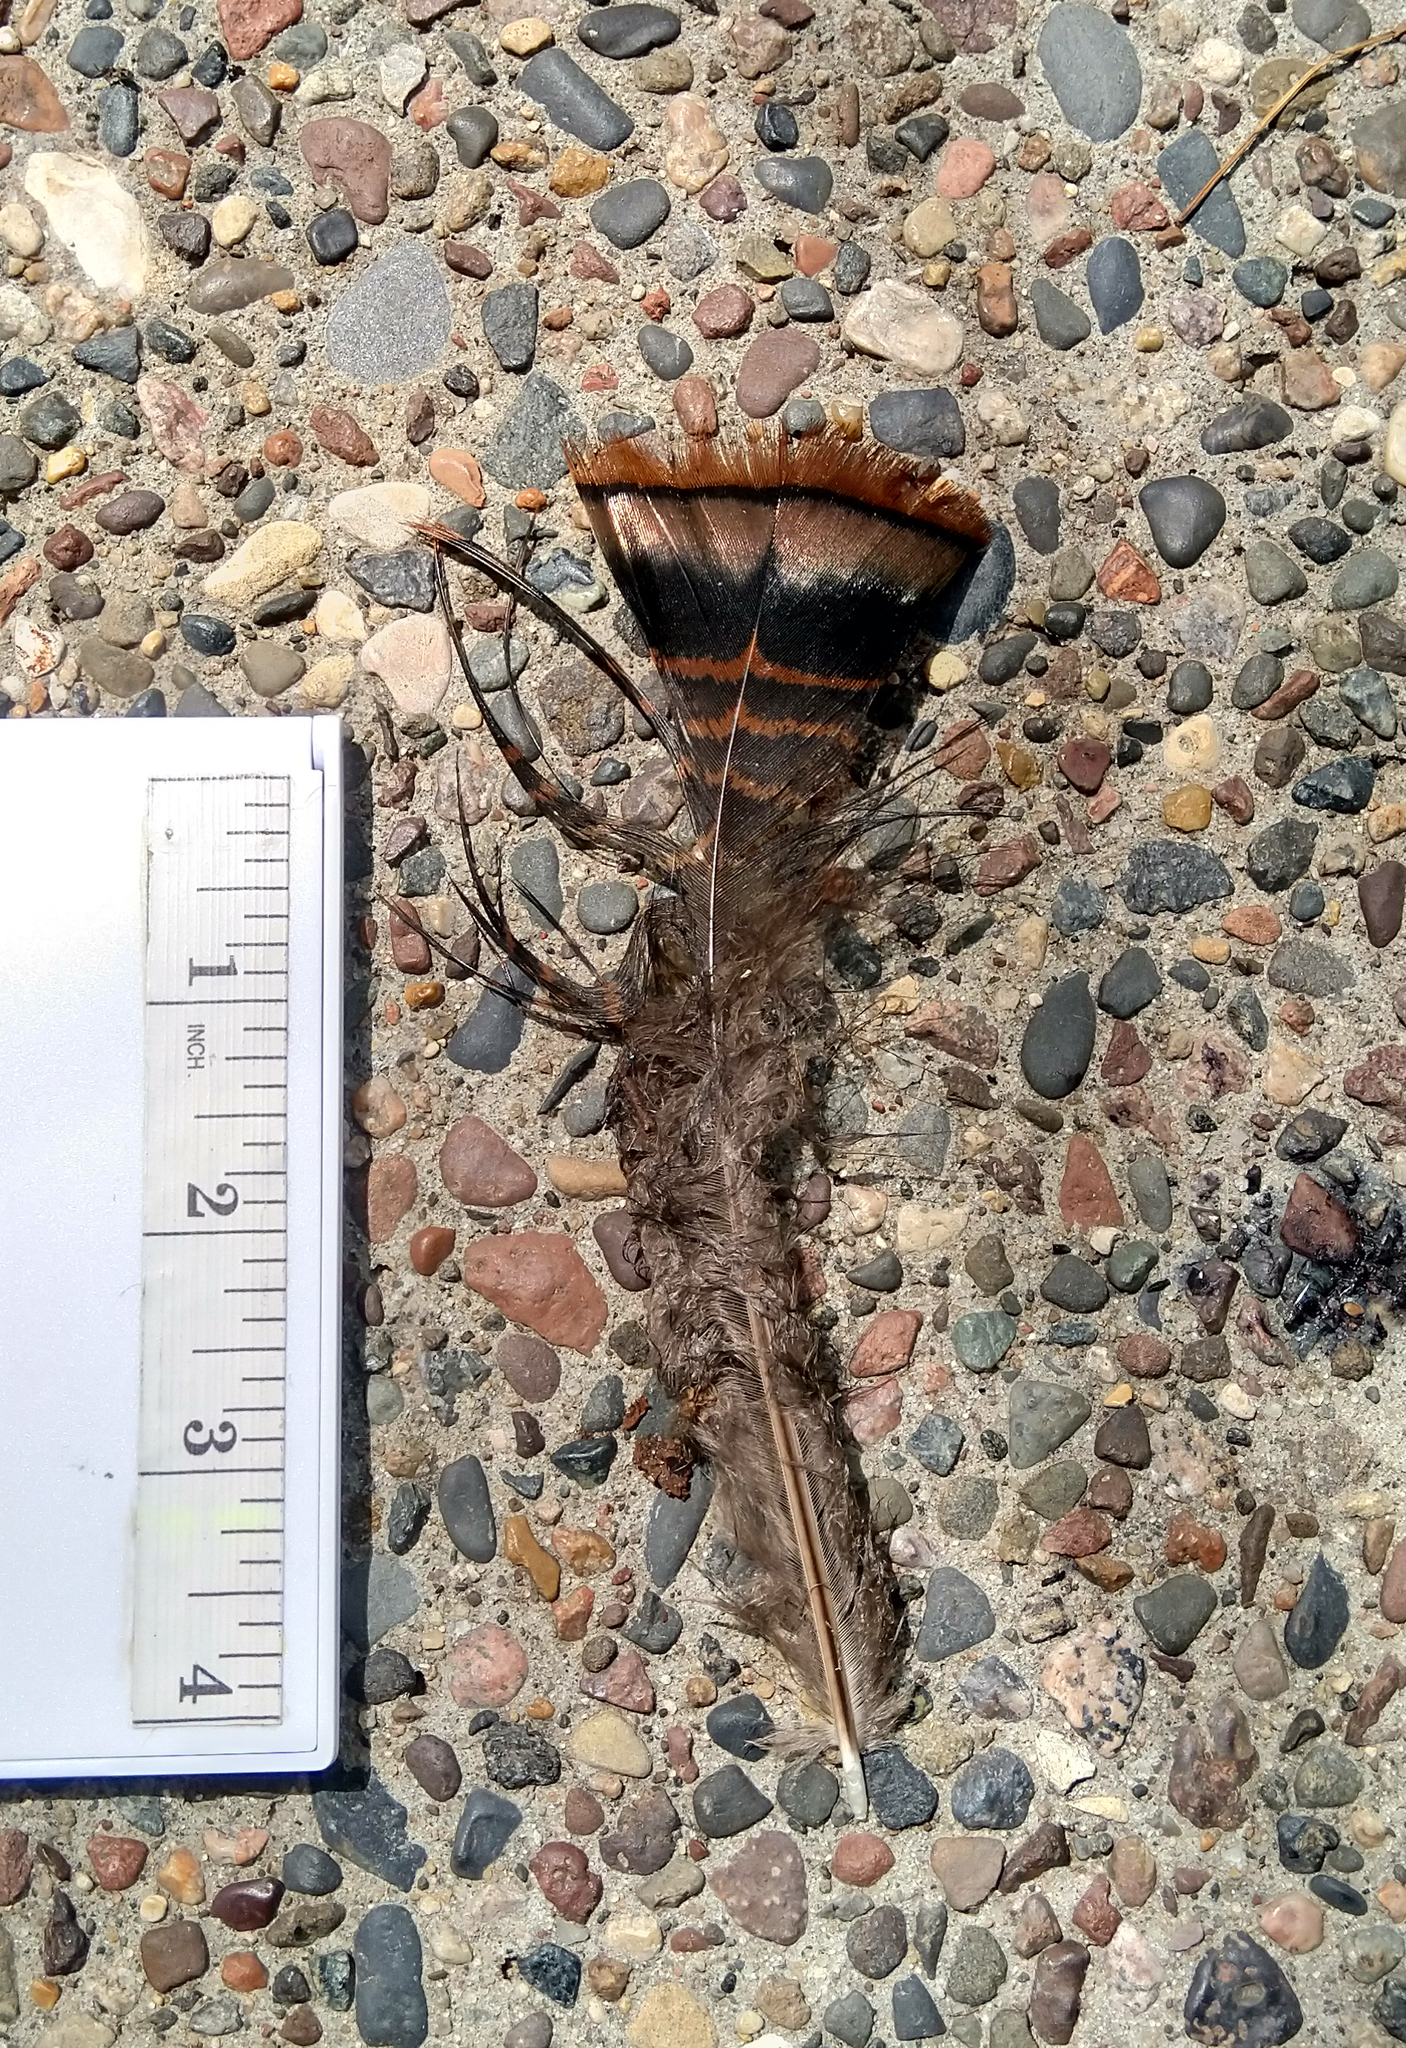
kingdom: Animalia
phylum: Chordata
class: Aves
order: Galliformes
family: Phasianidae
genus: Meleagris
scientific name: Meleagris gallopavo
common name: Wild turkey
